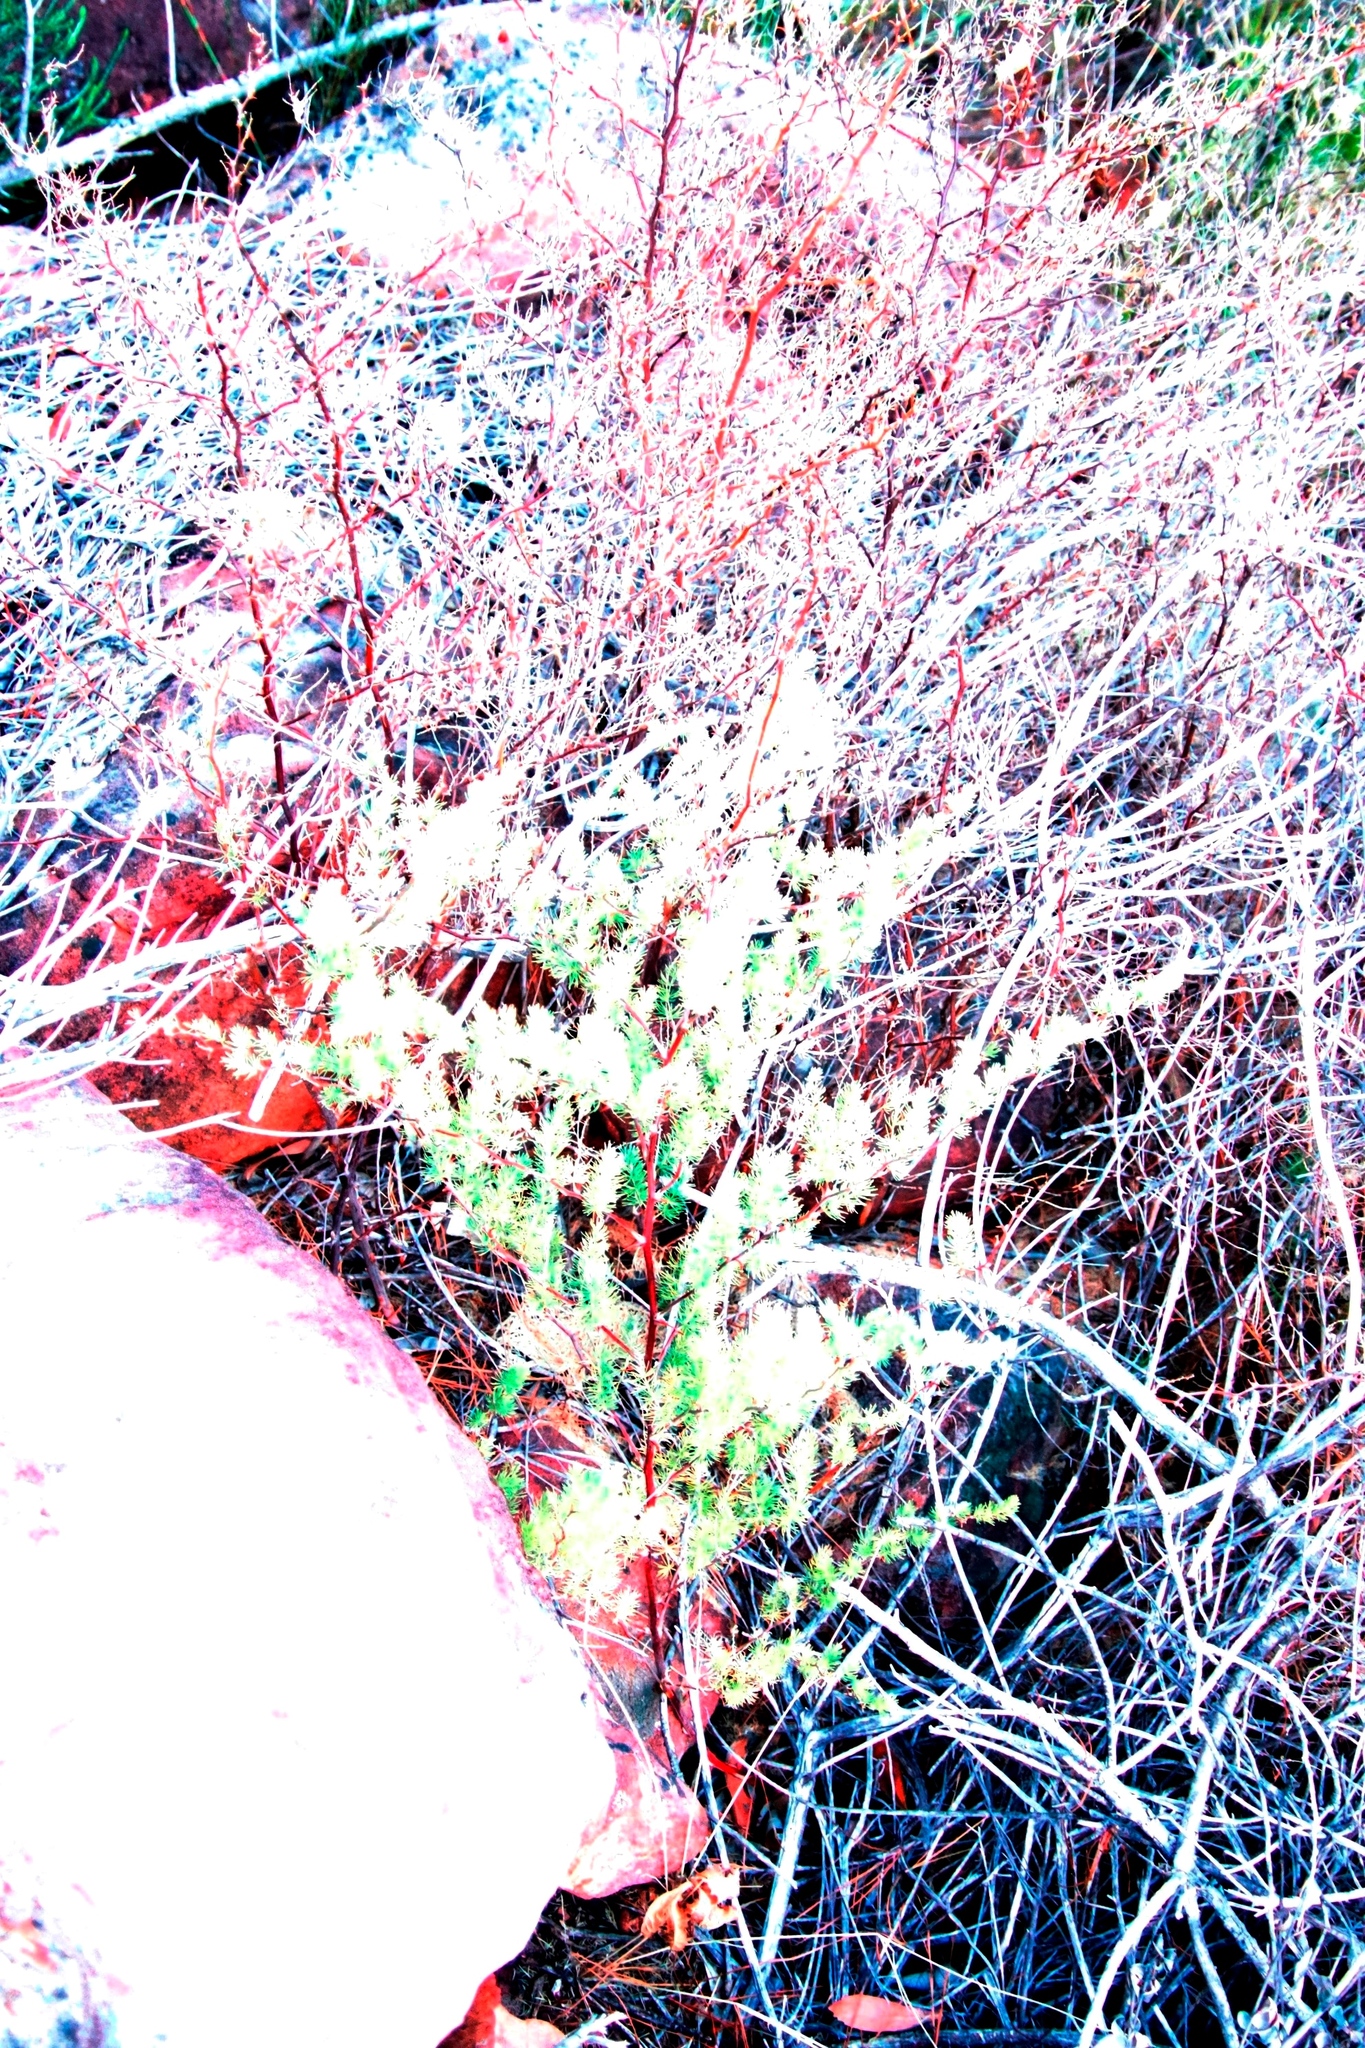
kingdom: Plantae
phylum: Tracheophyta
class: Liliopsida
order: Asparagales
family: Asparagaceae
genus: Asparagus
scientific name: Asparagus rubicundus
